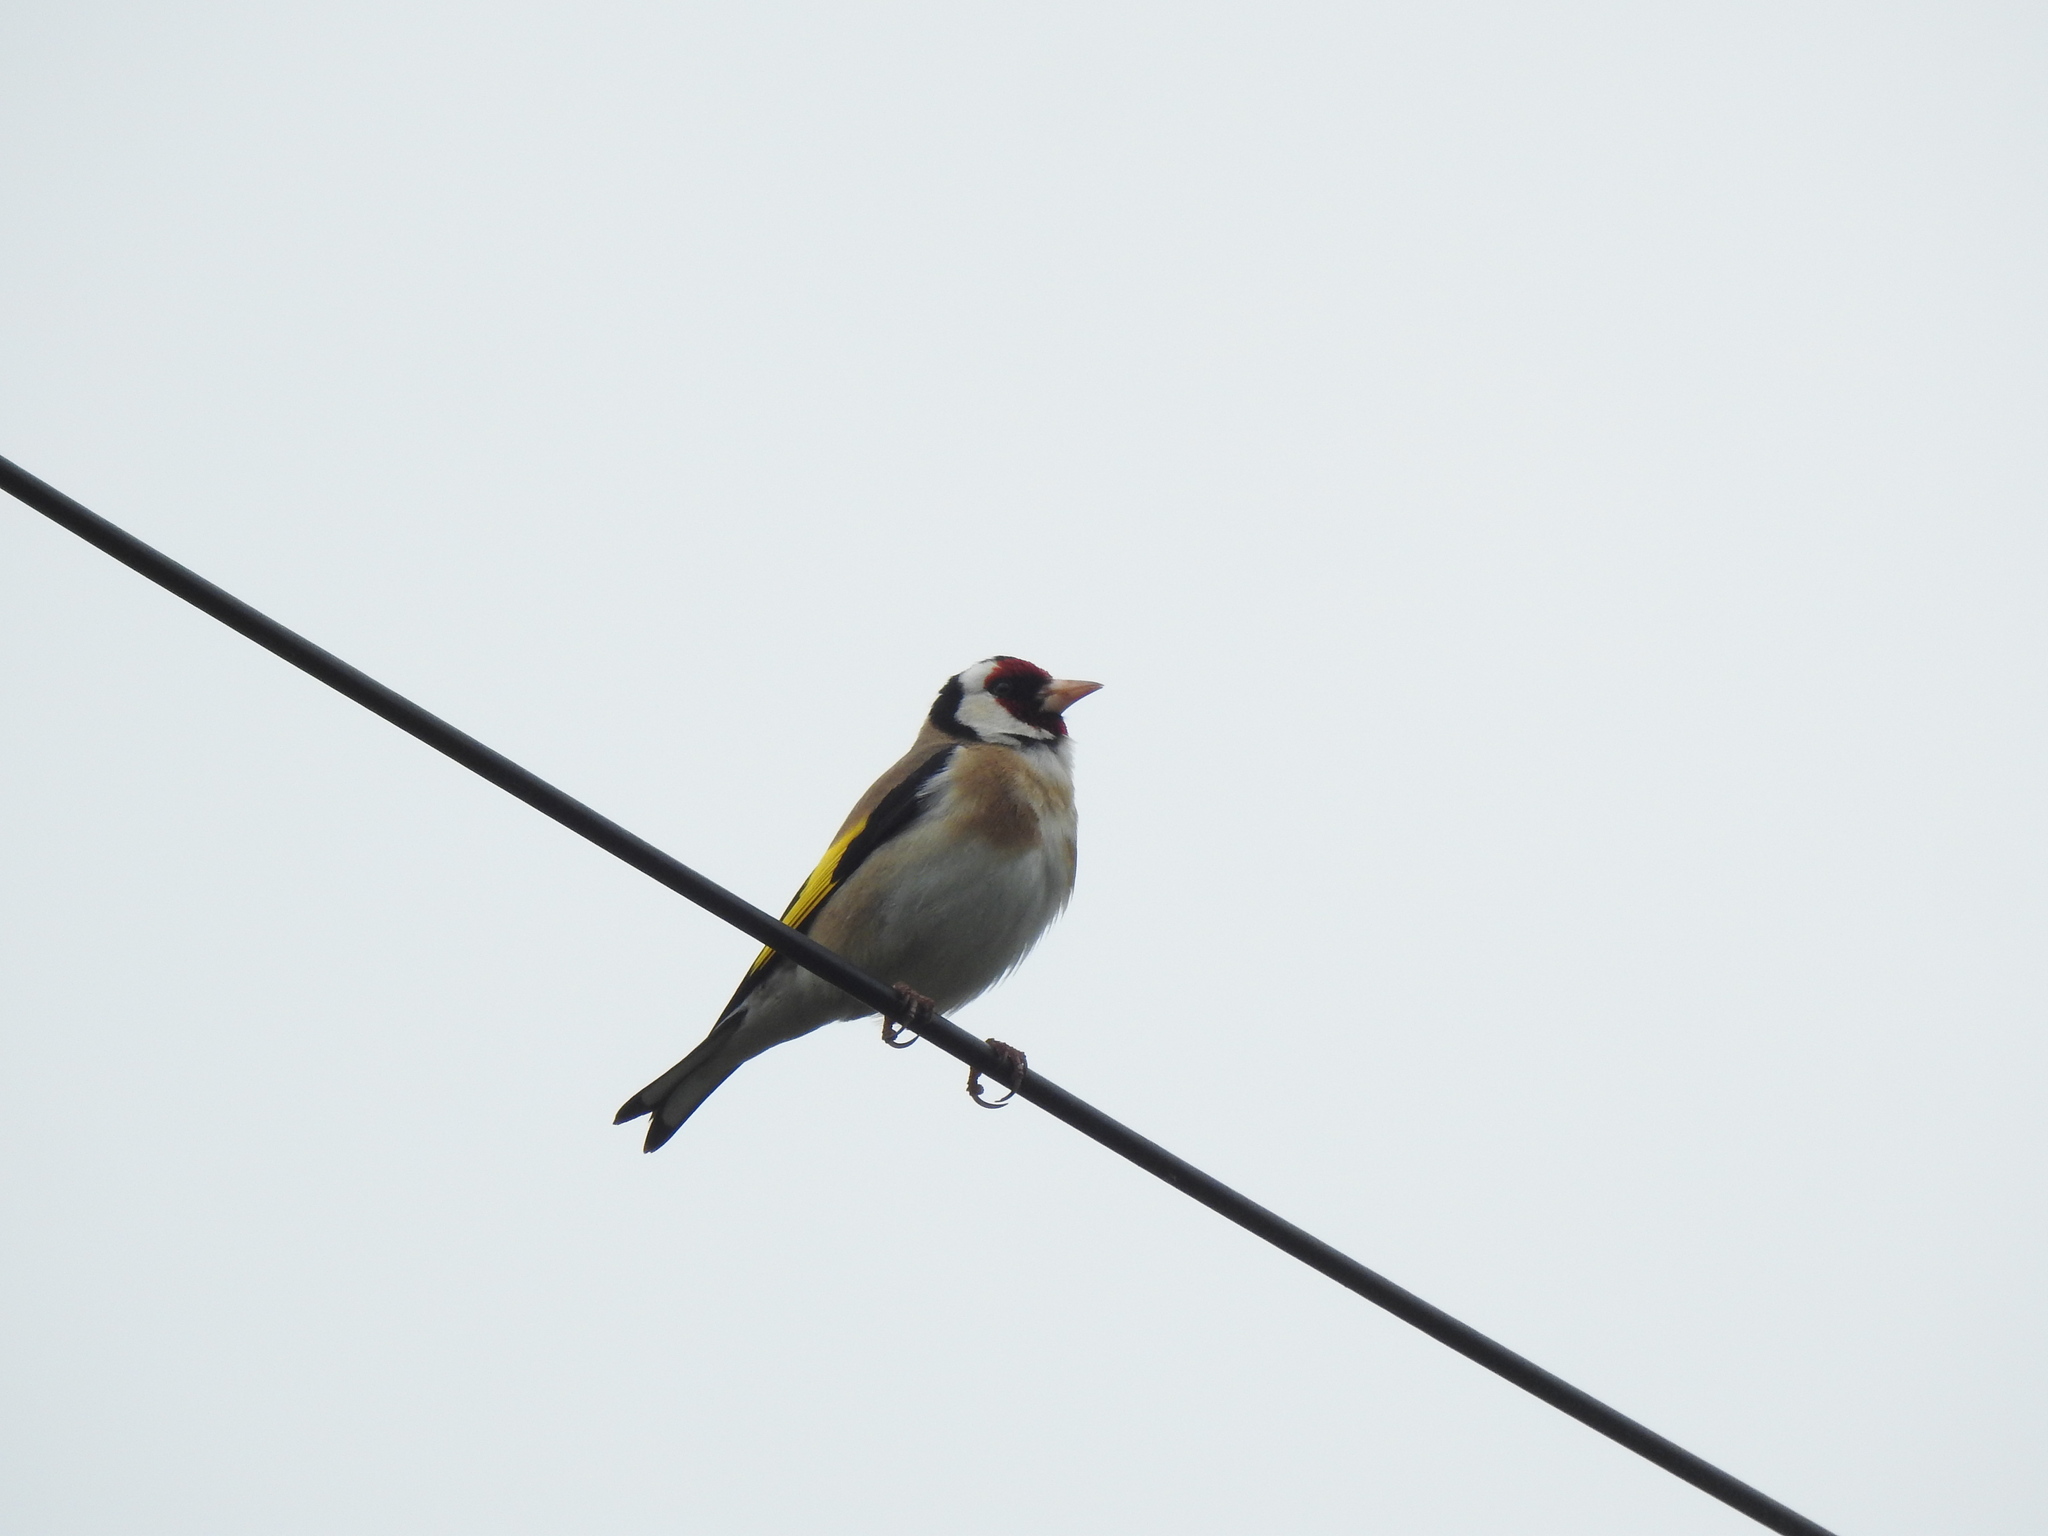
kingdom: Animalia
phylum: Chordata
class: Aves
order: Passeriformes
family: Fringillidae
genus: Carduelis
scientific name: Carduelis carduelis
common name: European goldfinch
